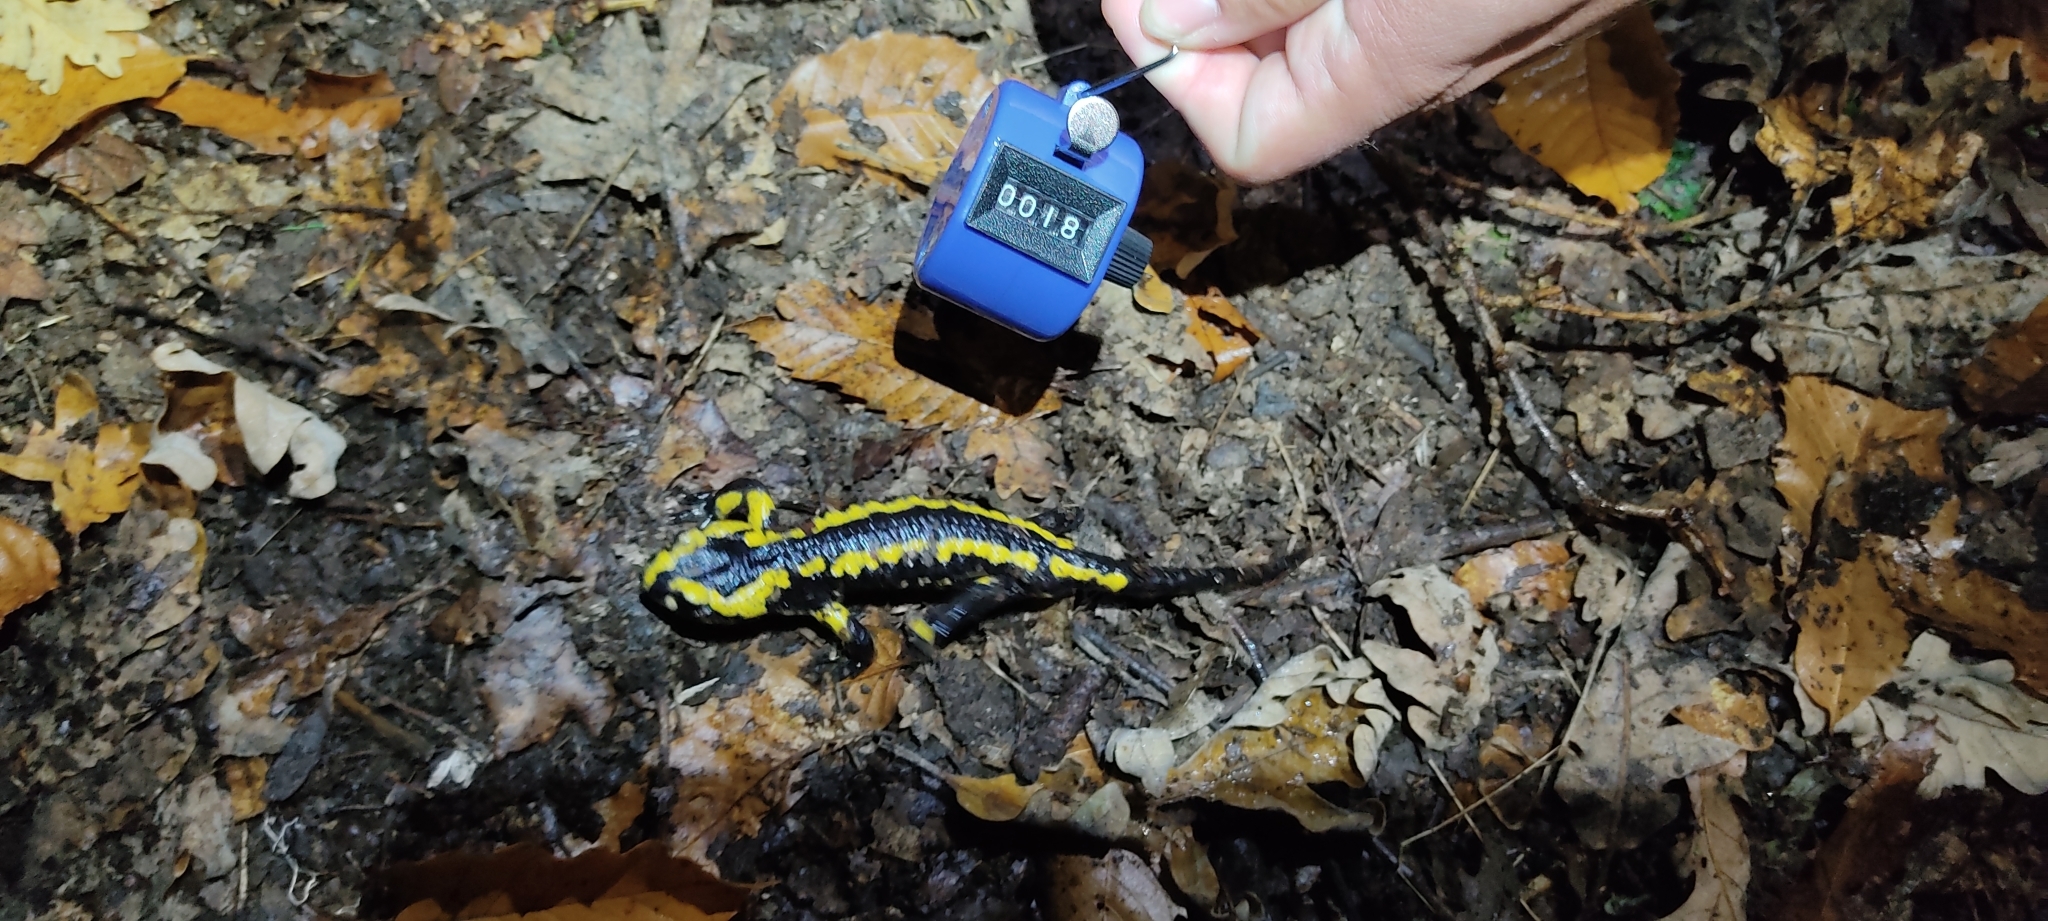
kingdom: Animalia
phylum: Chordata
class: Amphibia
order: Caudata
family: Salamandridae
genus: Salamandra
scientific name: Salamandra salamandra
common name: Fire salamander
